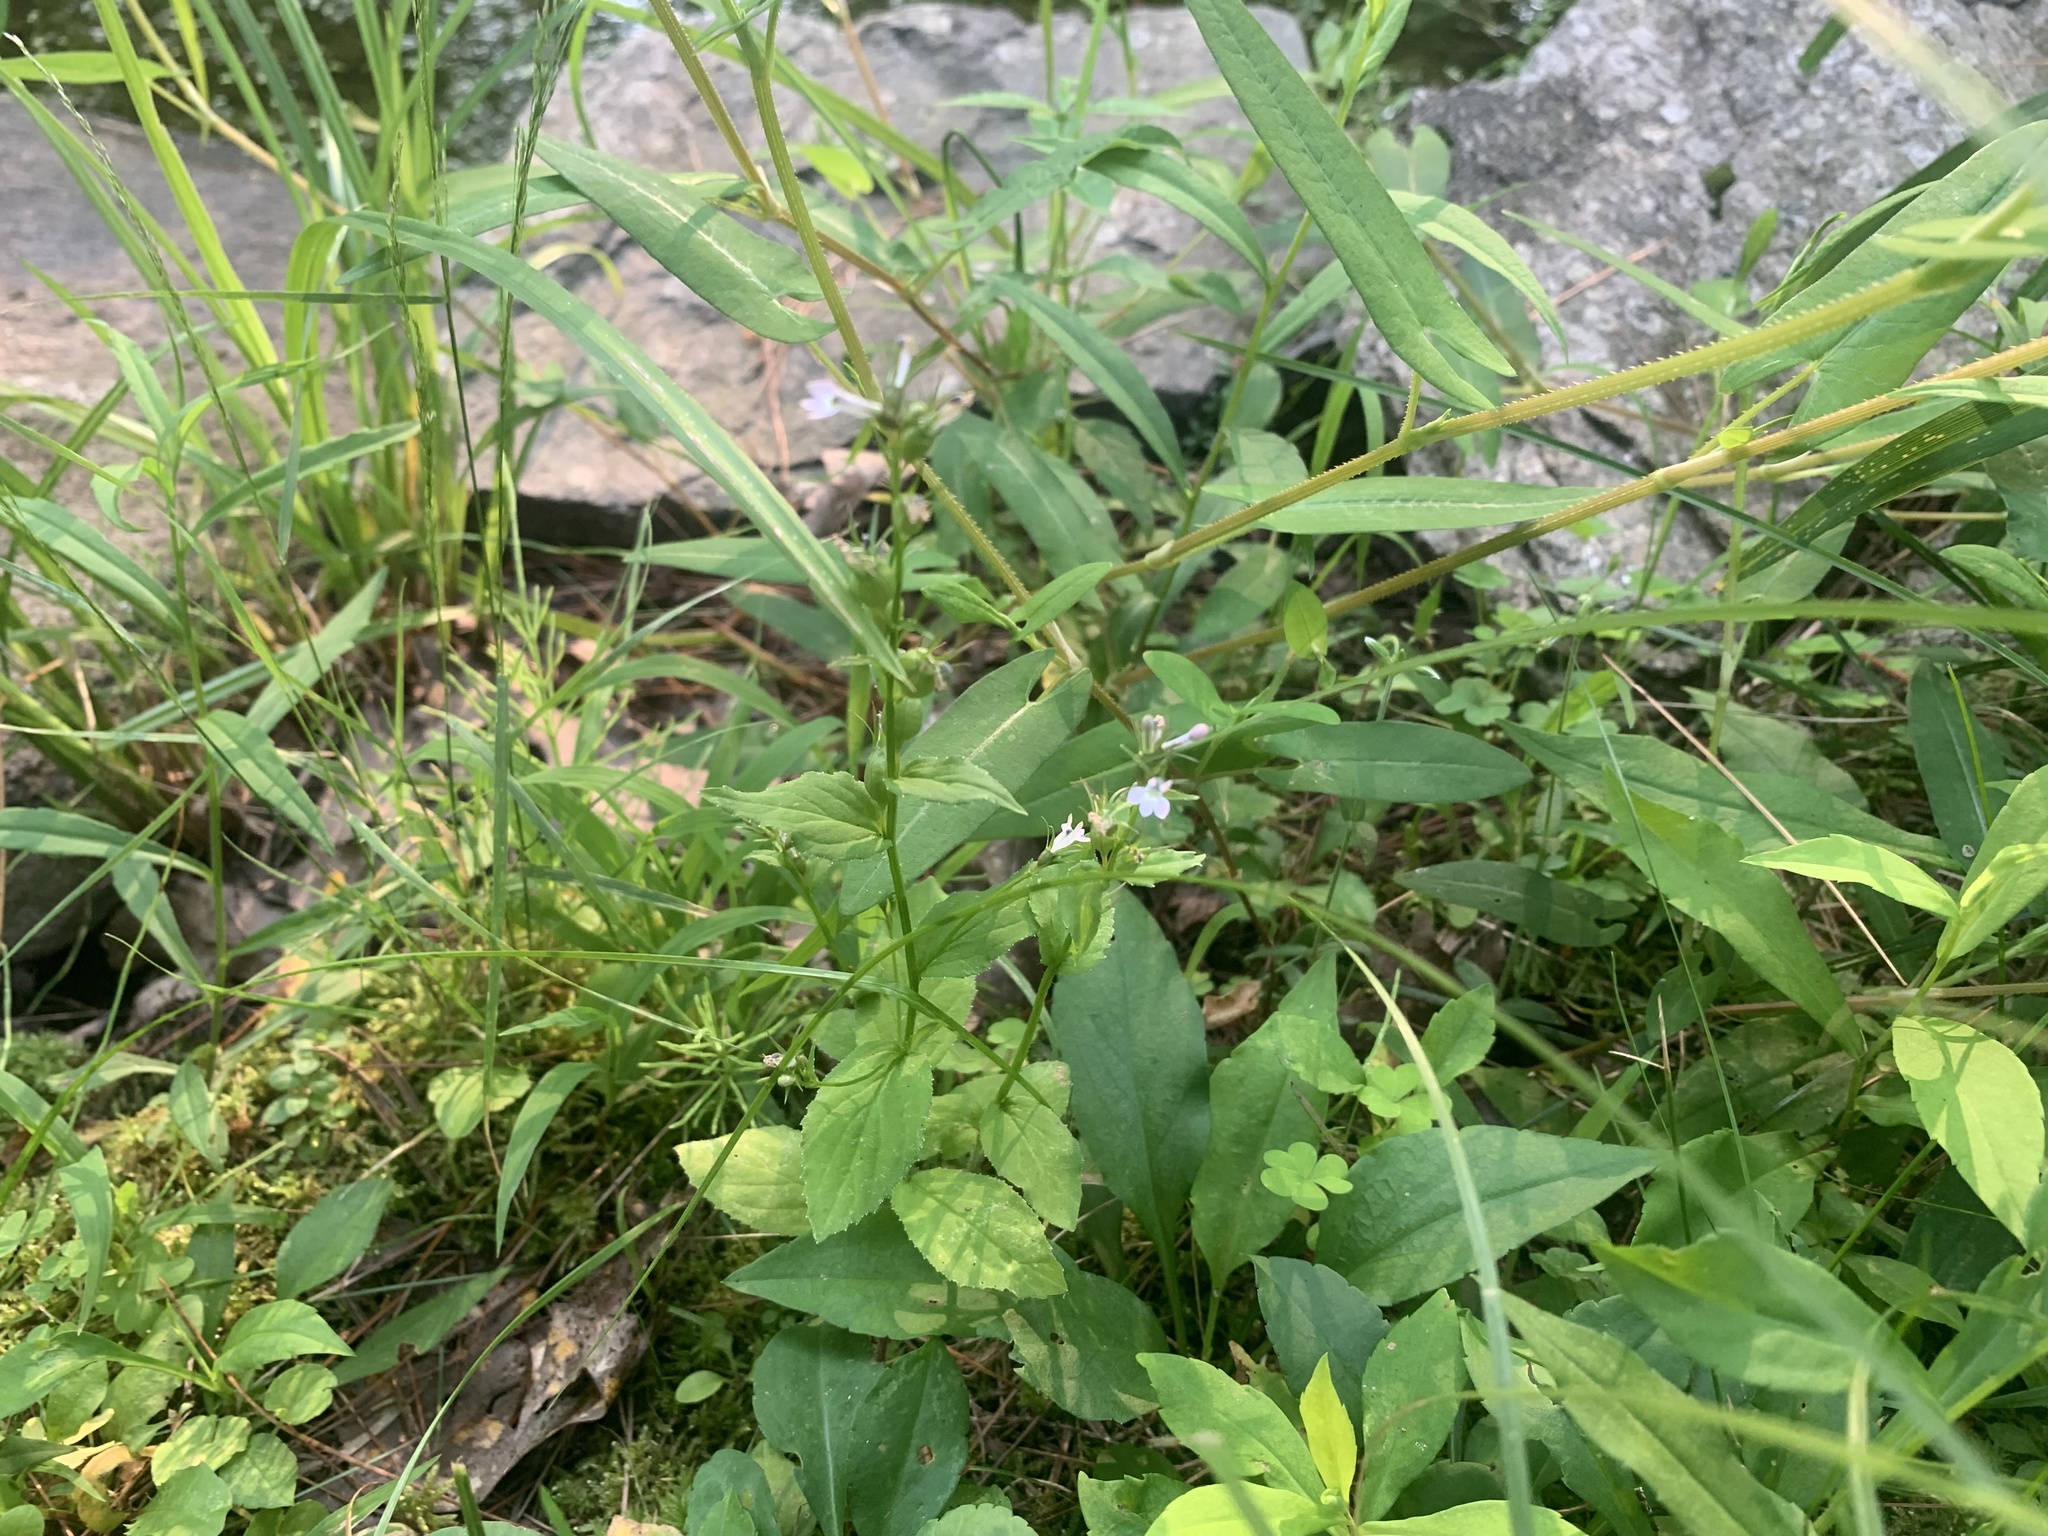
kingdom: Plantae
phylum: Tracheophyta
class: Magnoliopsida
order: Asterales
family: Campanulaceae
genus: Lobelia
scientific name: Lobelia inflata
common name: Indian tobacco
